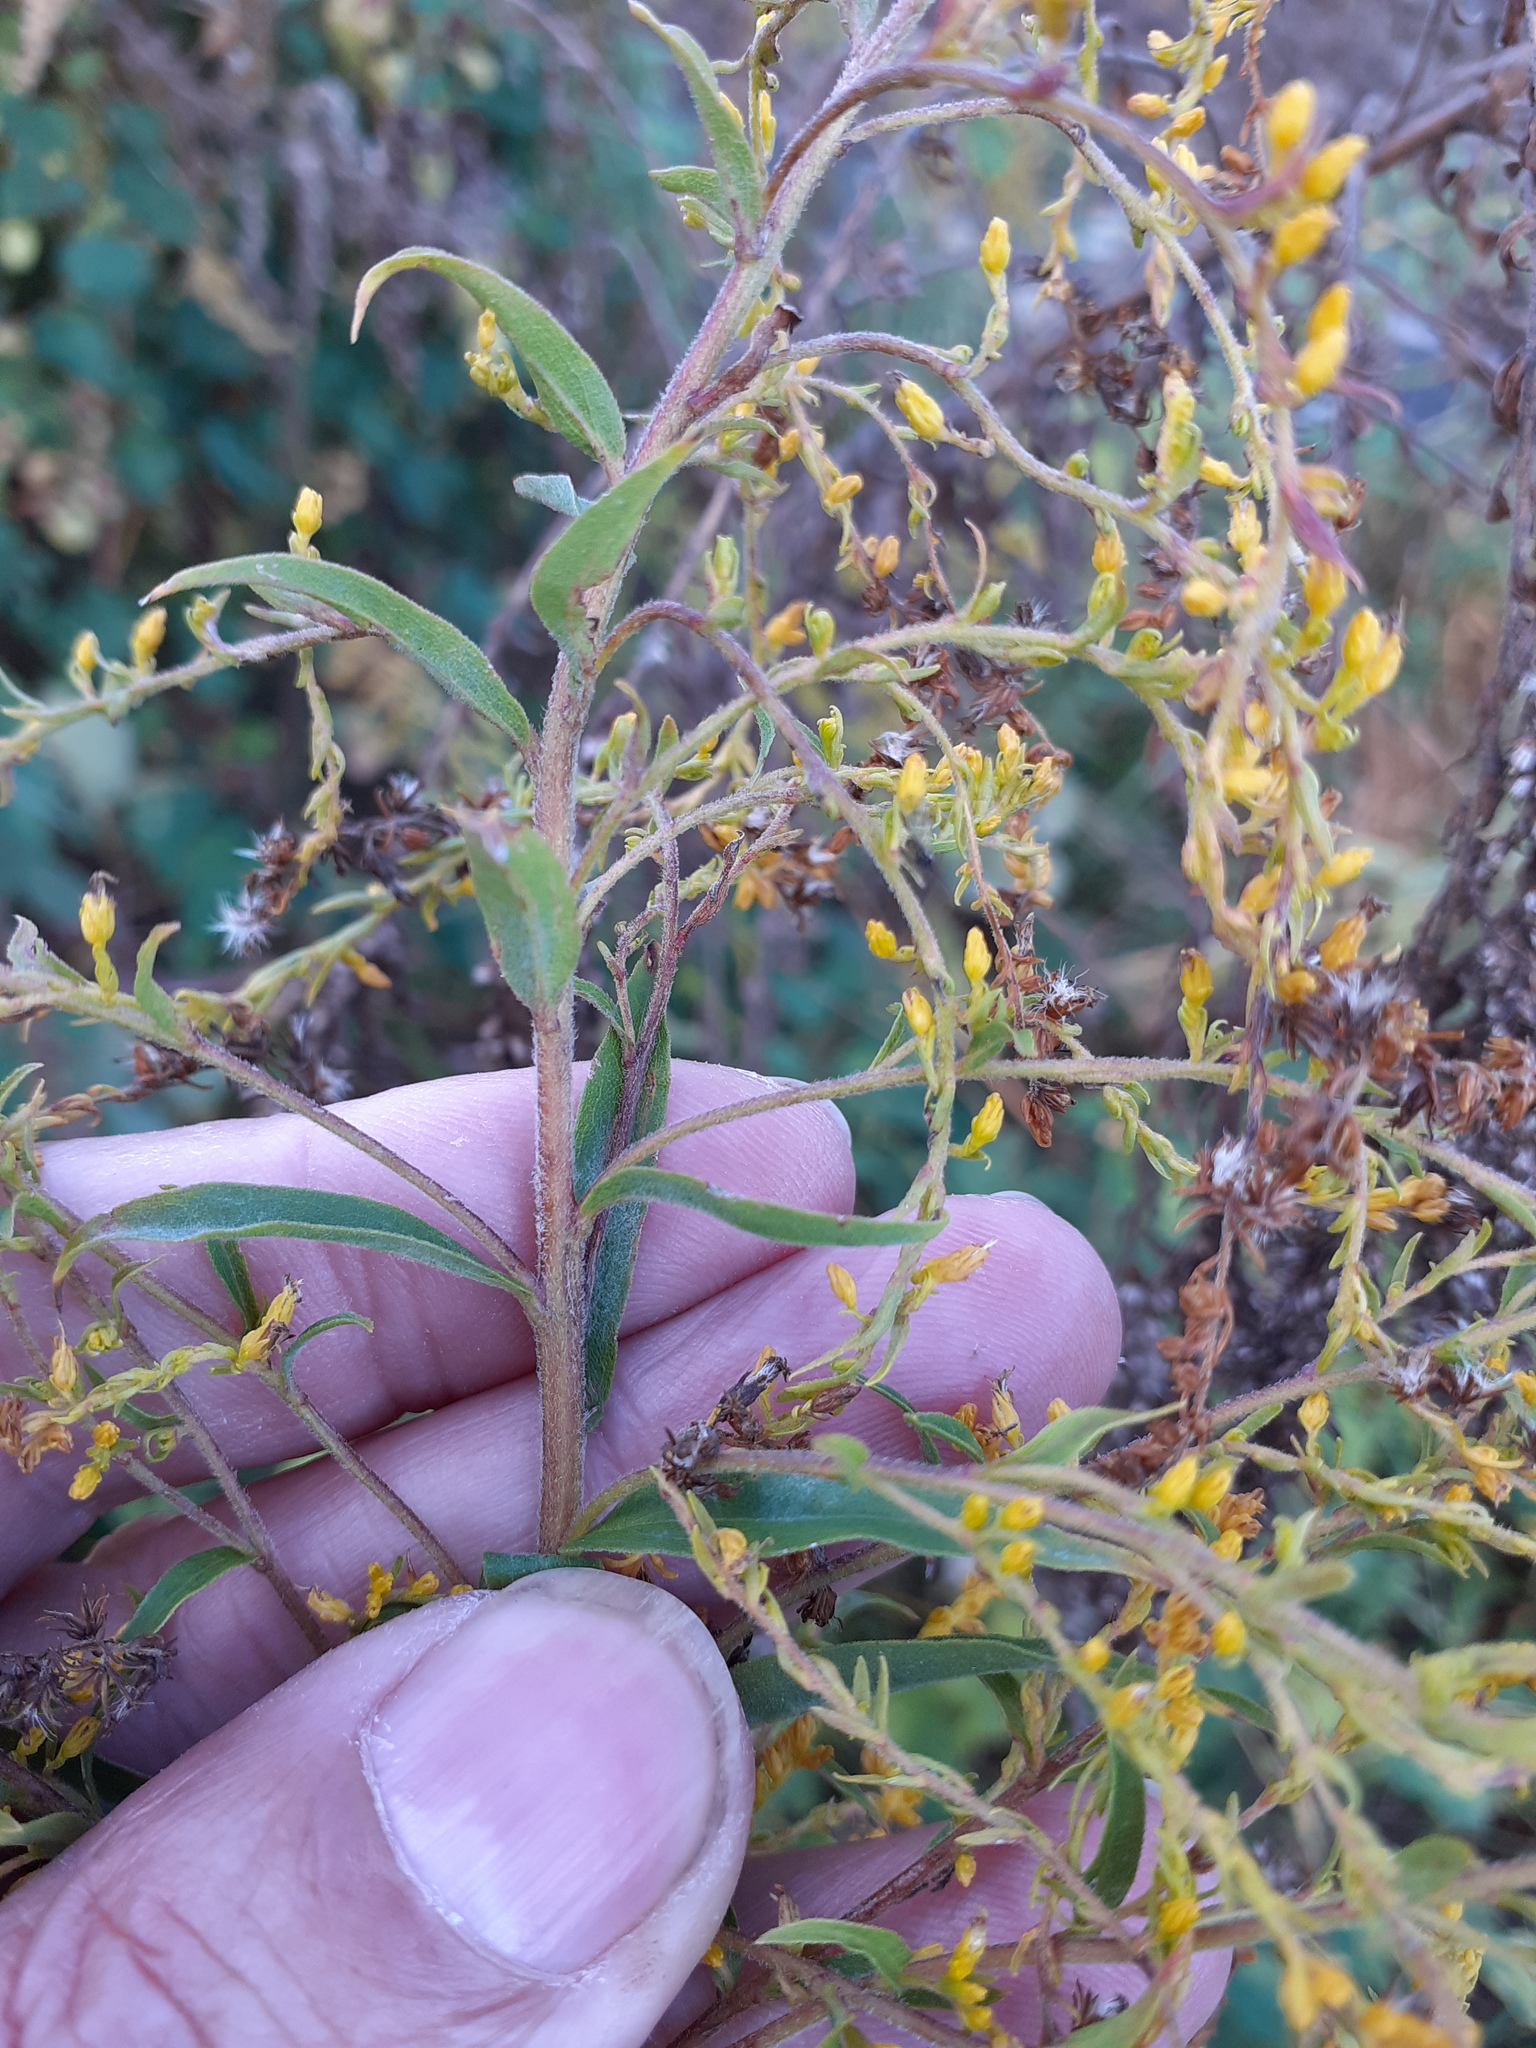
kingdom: Plantae
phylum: Tracheophyta
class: Magnoliopsida
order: Asterales
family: Asteraceae
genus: Solidago
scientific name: Solidago canadensis
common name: Canada goldenrod
